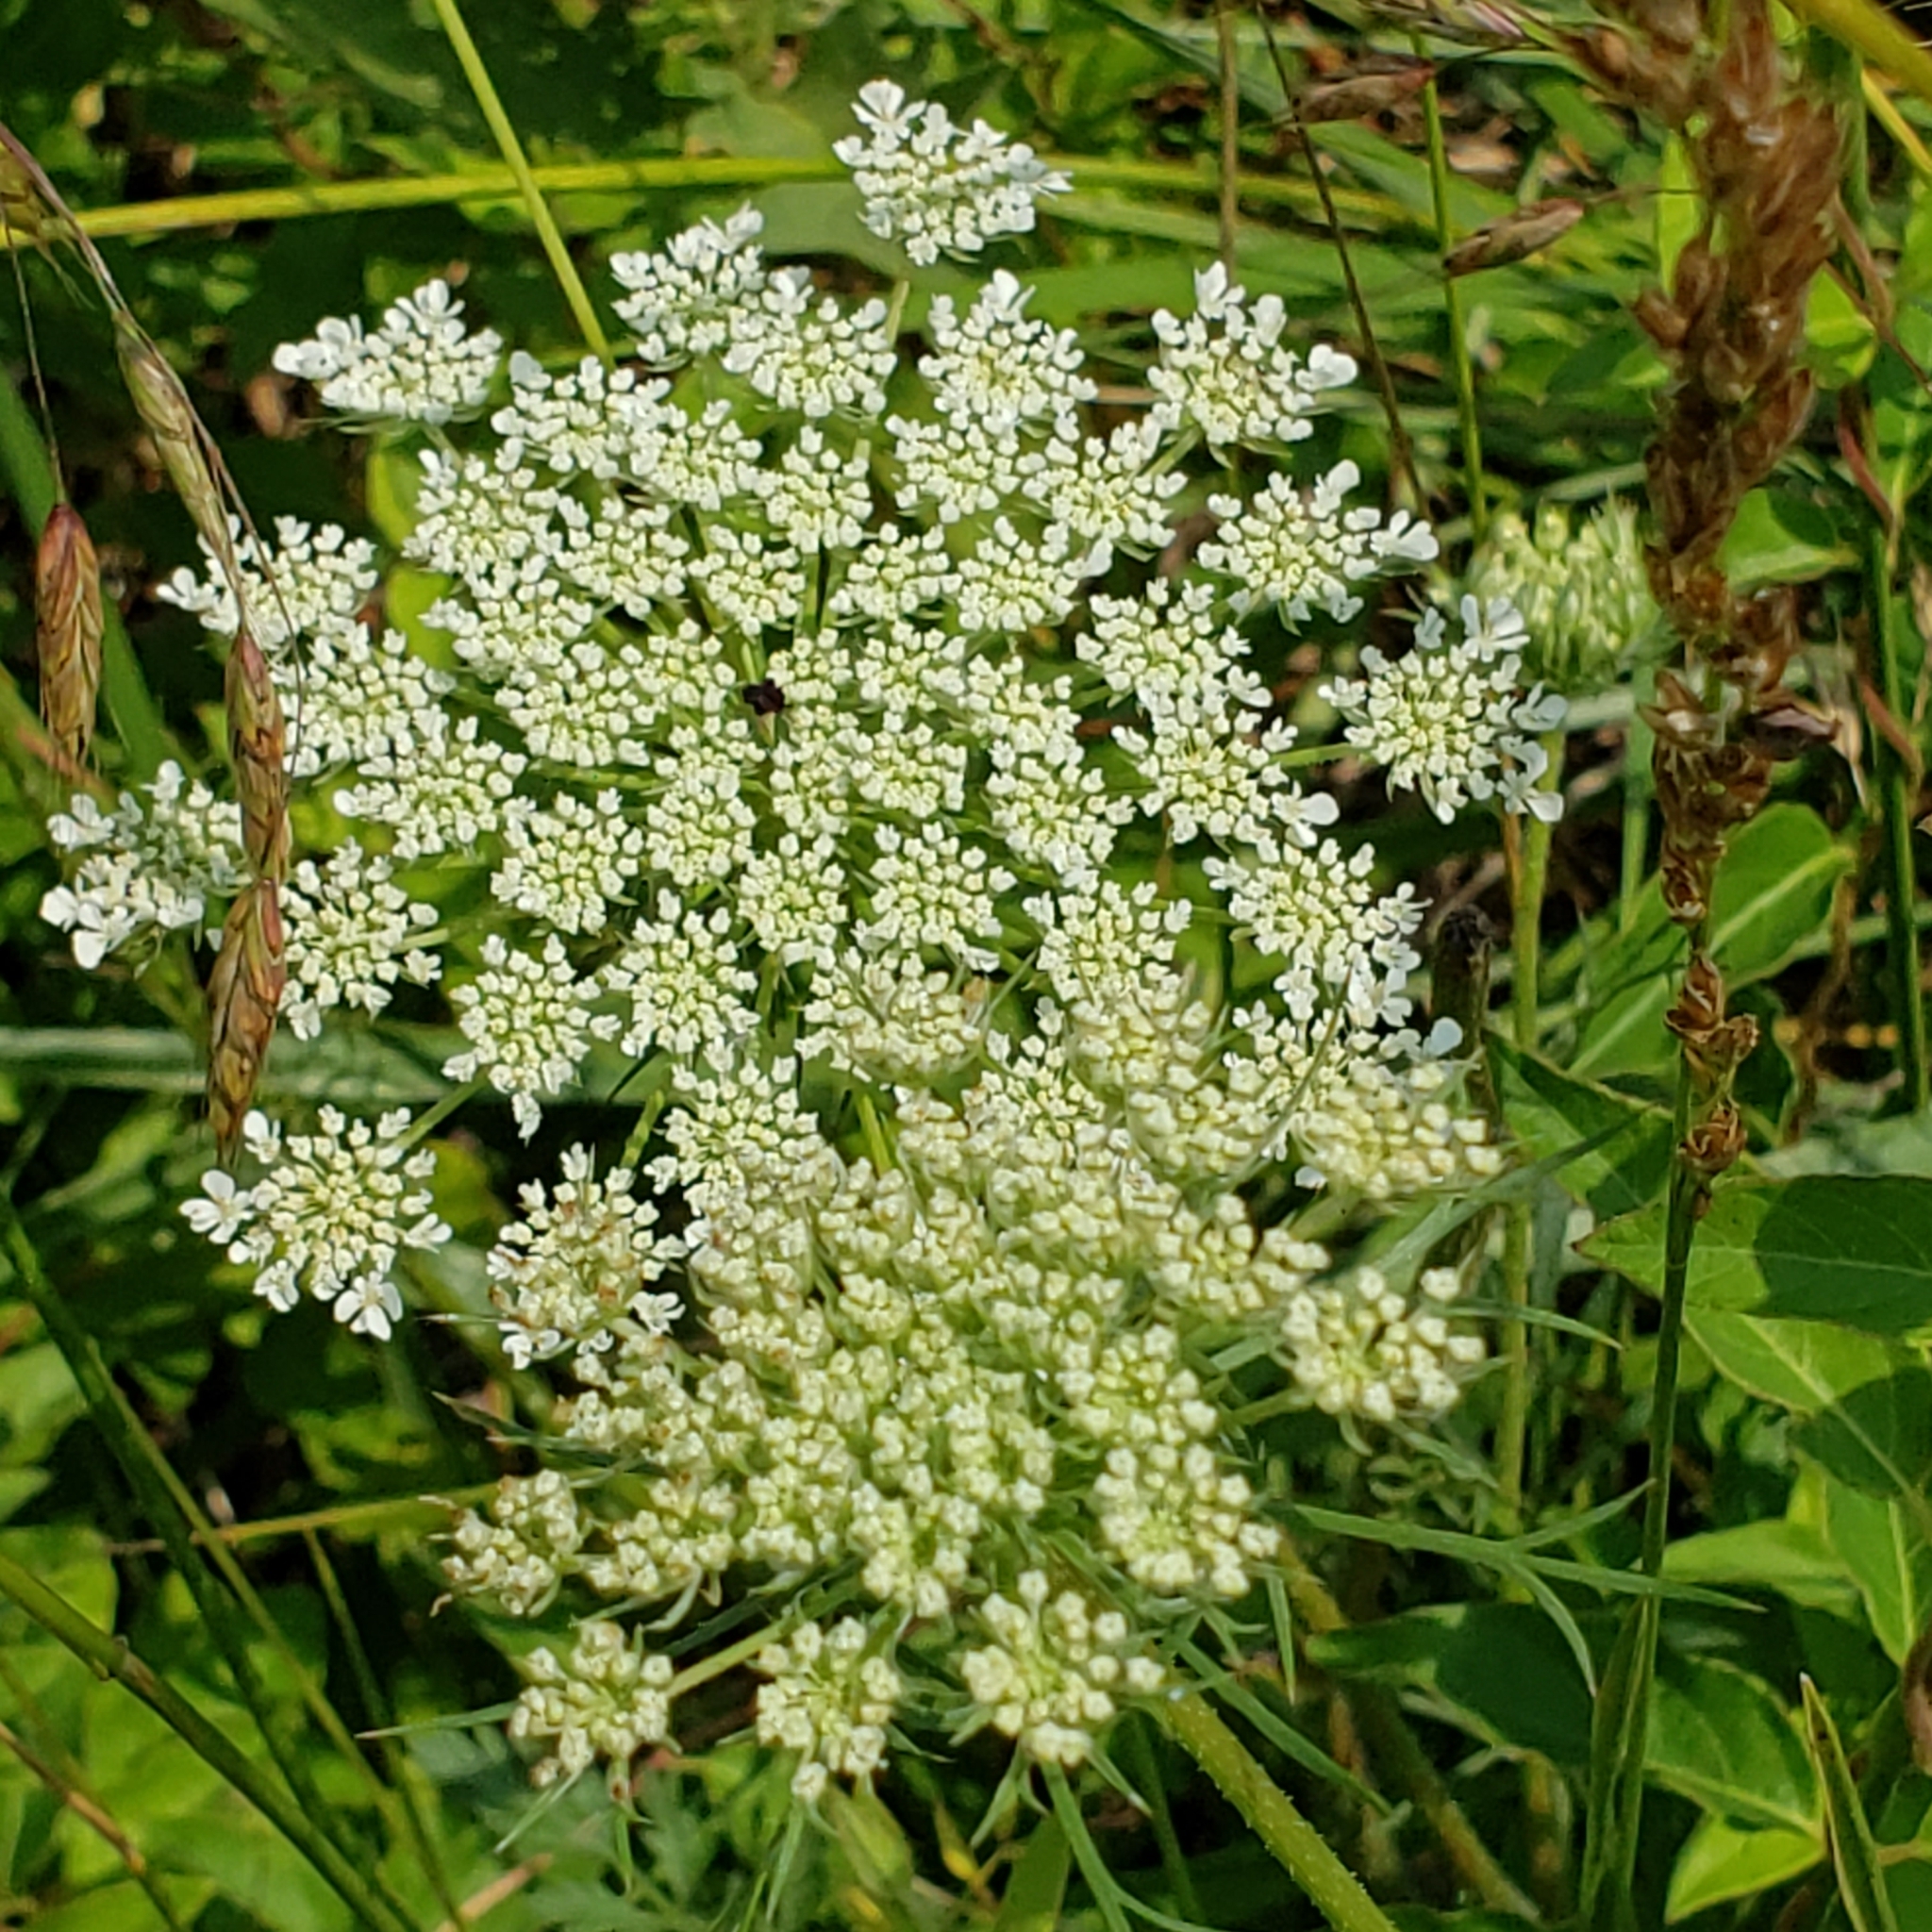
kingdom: Plantae
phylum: Tracheophyta
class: Magnoliopsida
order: Apiales
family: Apiaceae
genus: Daucus
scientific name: Daucus carota
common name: Wild carrot
